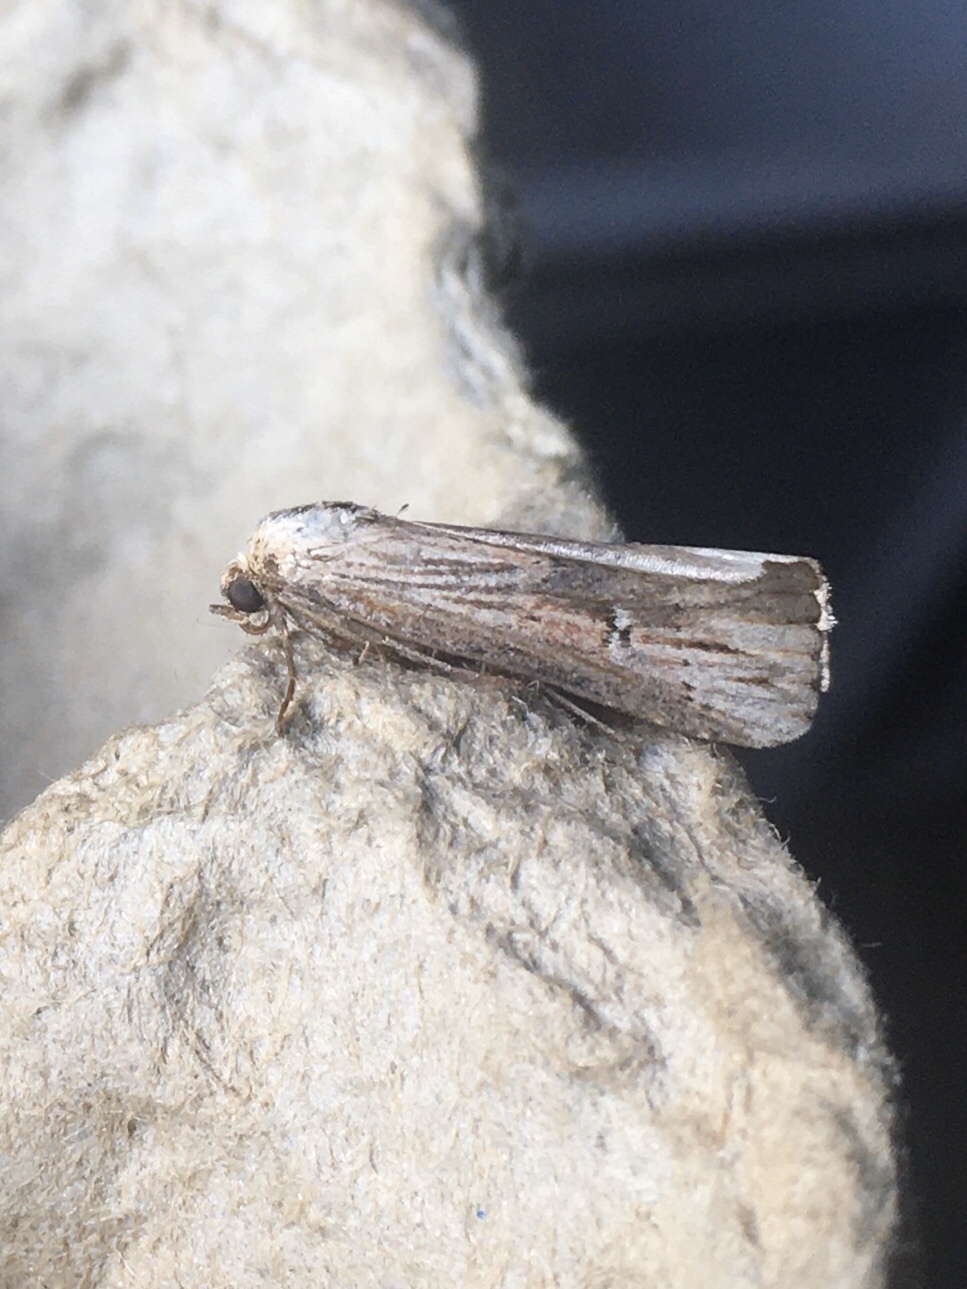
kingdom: Animalia
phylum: Arthropoda
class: Insecta
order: Lepidoptera
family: Noctuidae
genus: Crambodes
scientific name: Crambodes talidiformis
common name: Verbena moth
